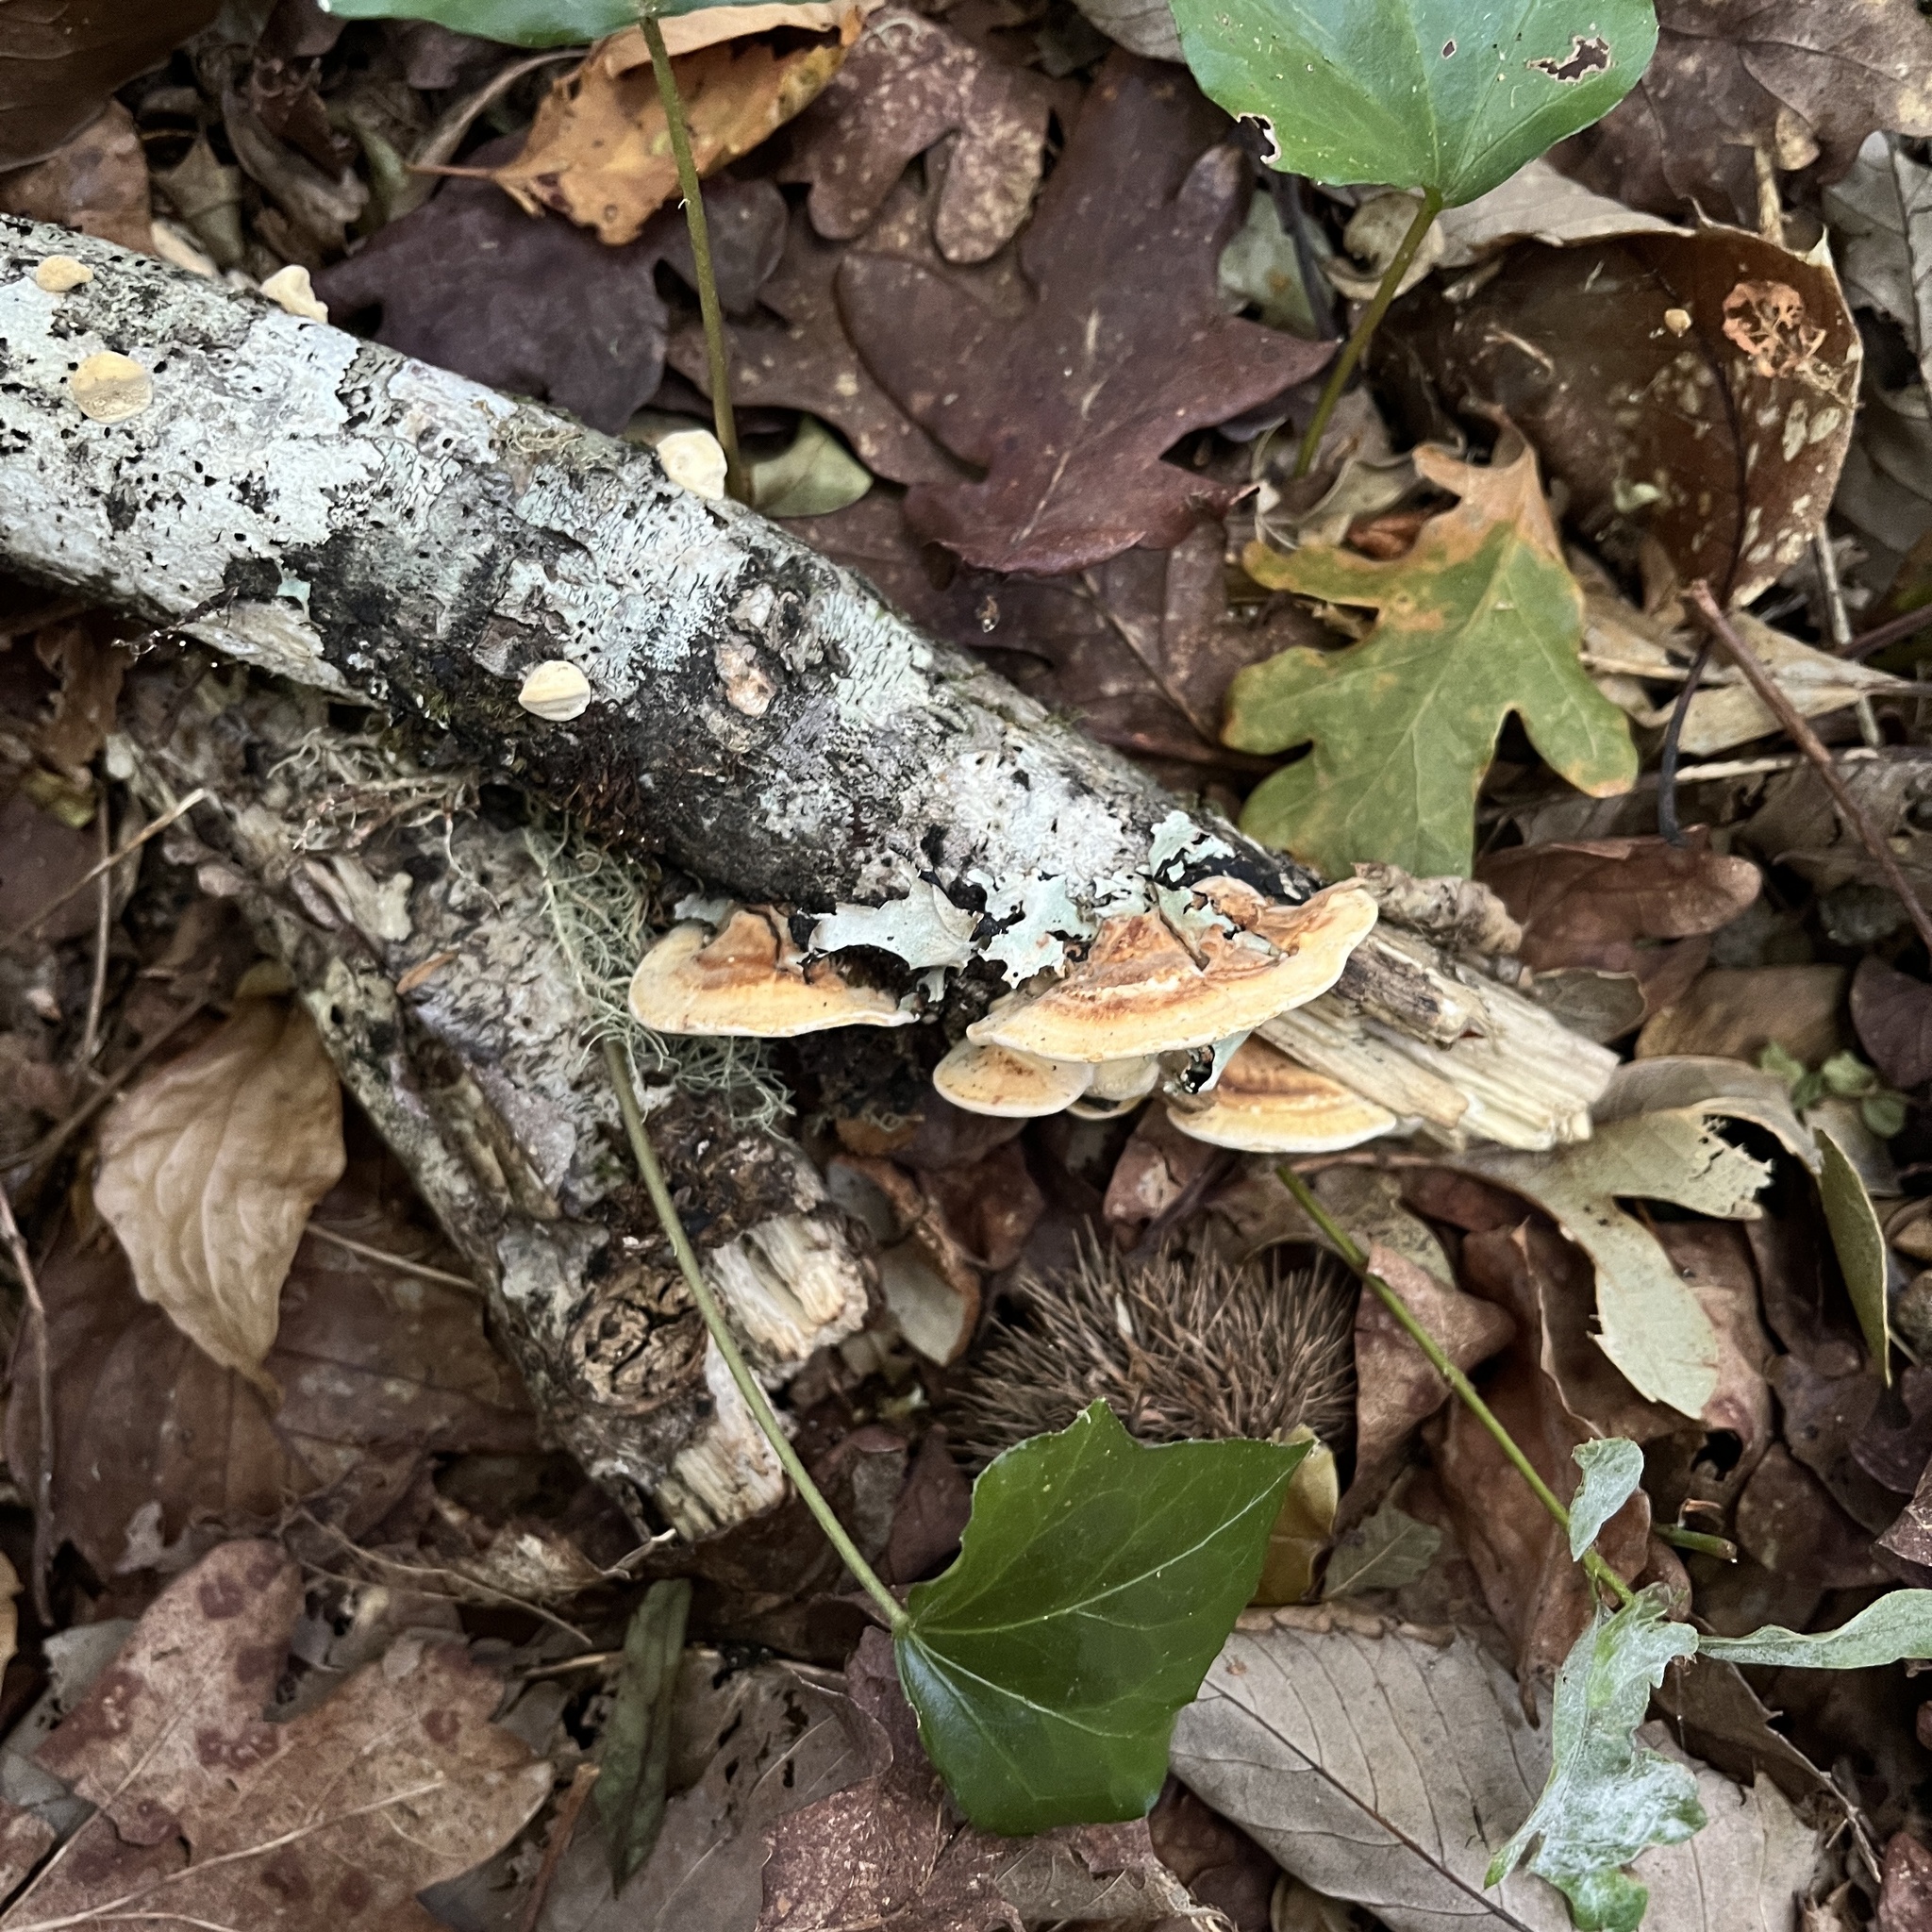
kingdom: Fungi
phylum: Basidiomycota
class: Agaricomycetes
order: Polyporales
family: Polyporaceae
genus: Trametes
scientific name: Trametes versicolor
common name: Turkeytail
